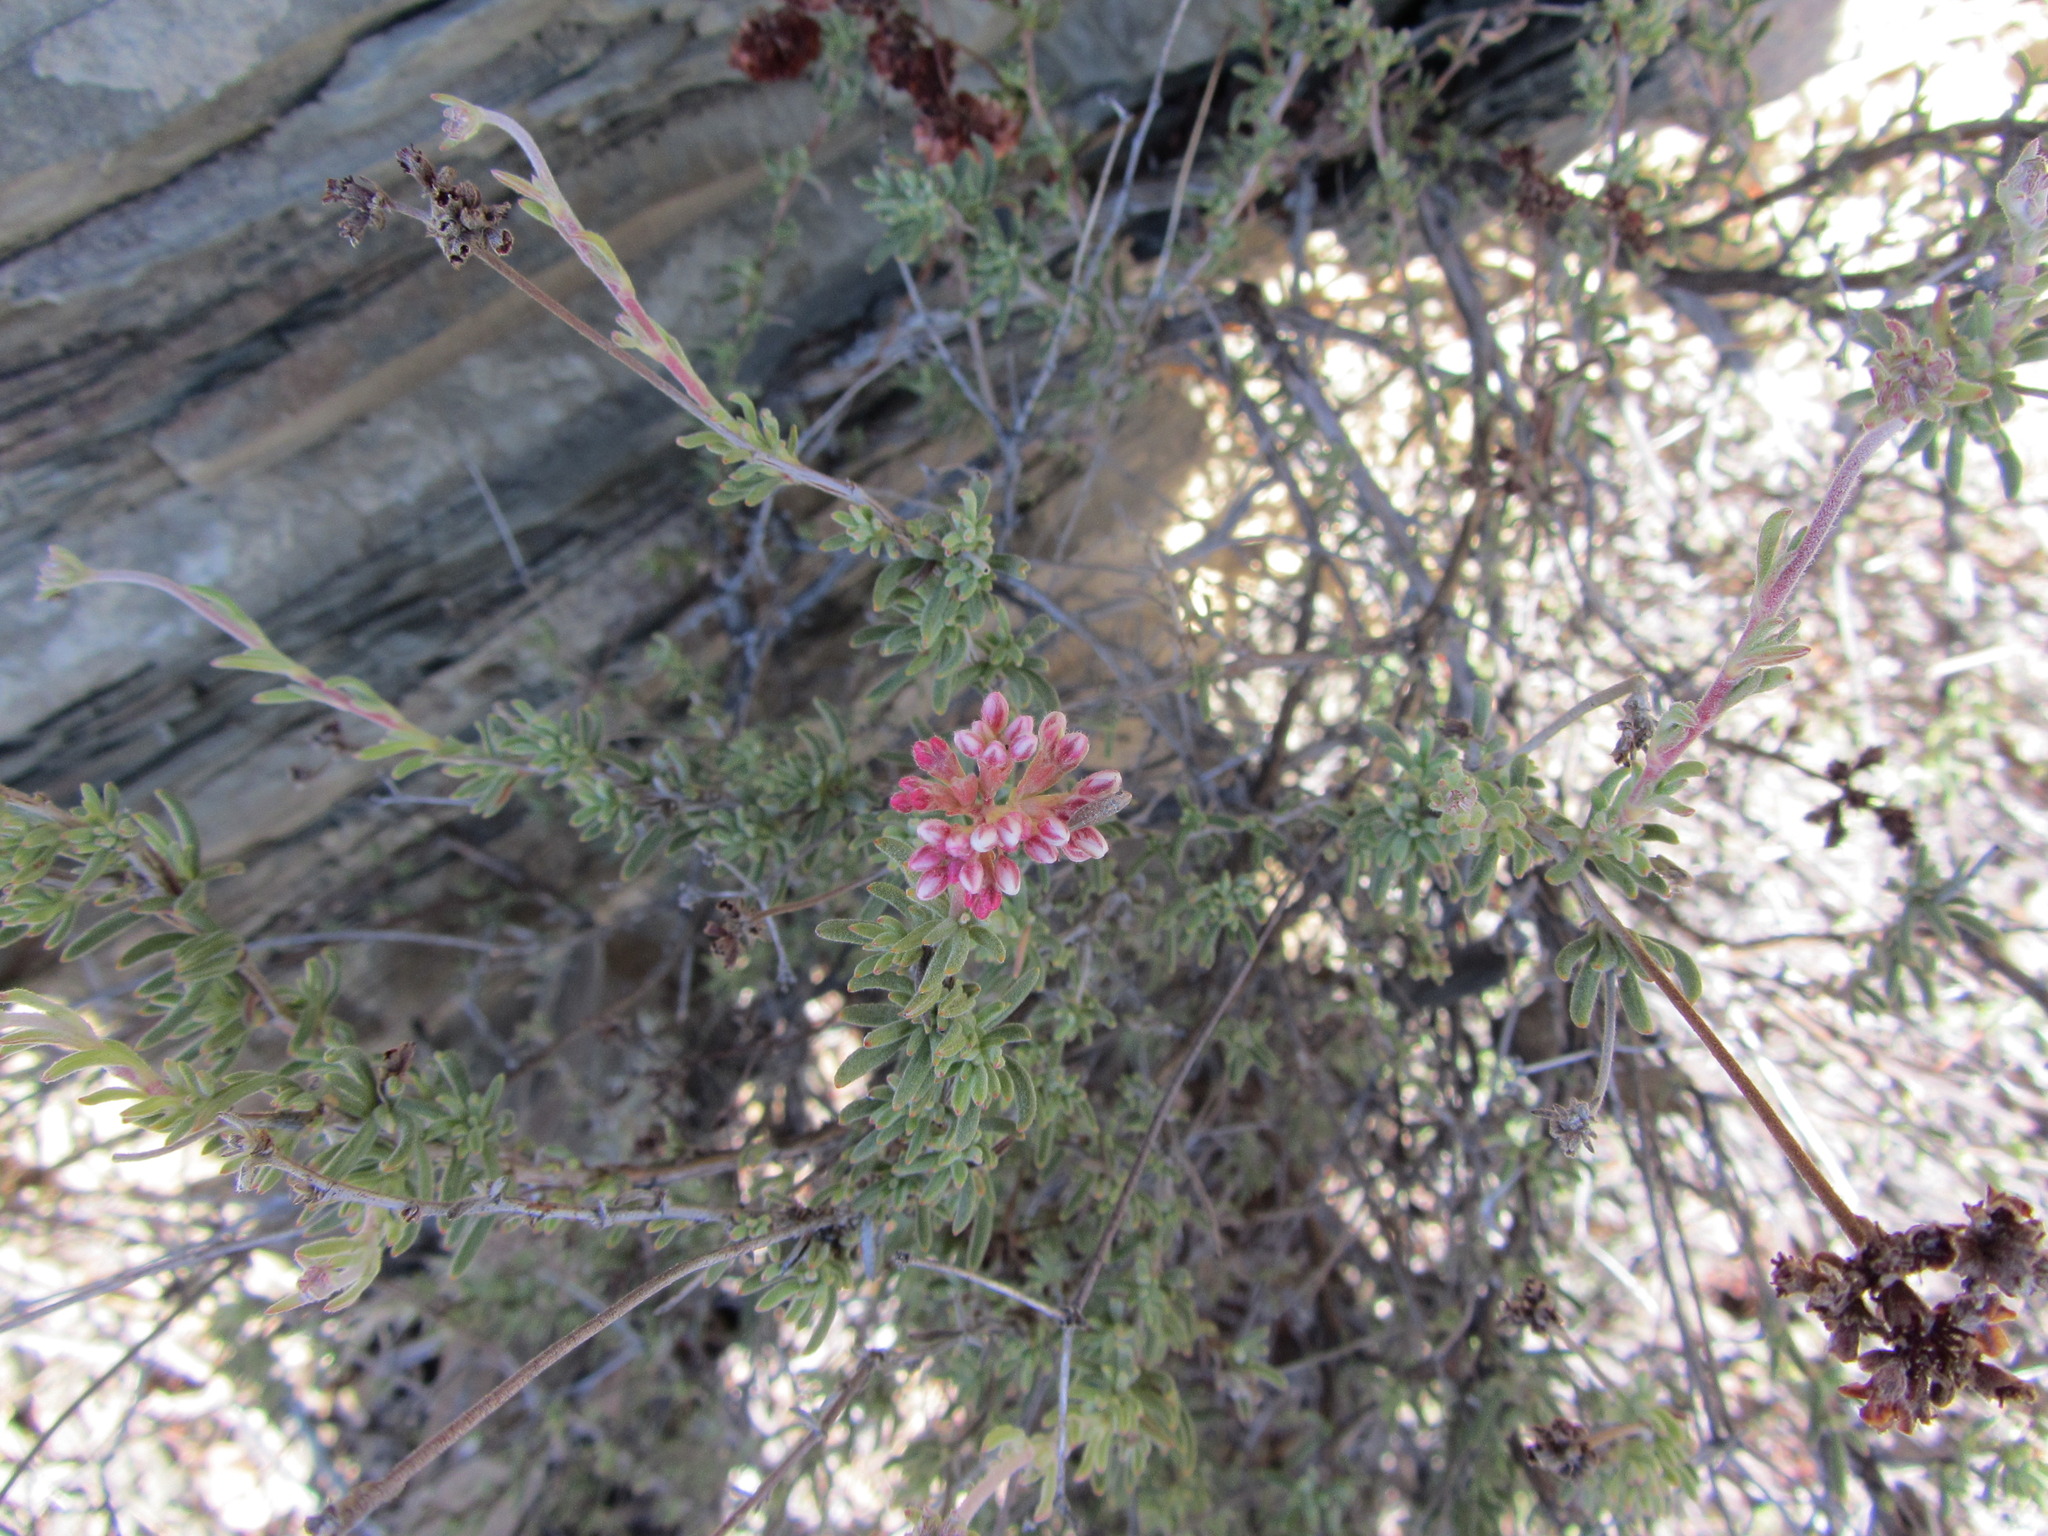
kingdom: Plantae
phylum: Tracheophyta
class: Magnoliopsida
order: Caryophyllales
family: Polygonaceae
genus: Eriogonum
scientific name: Eriogonum fasciculatum
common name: California wild buckwheat
